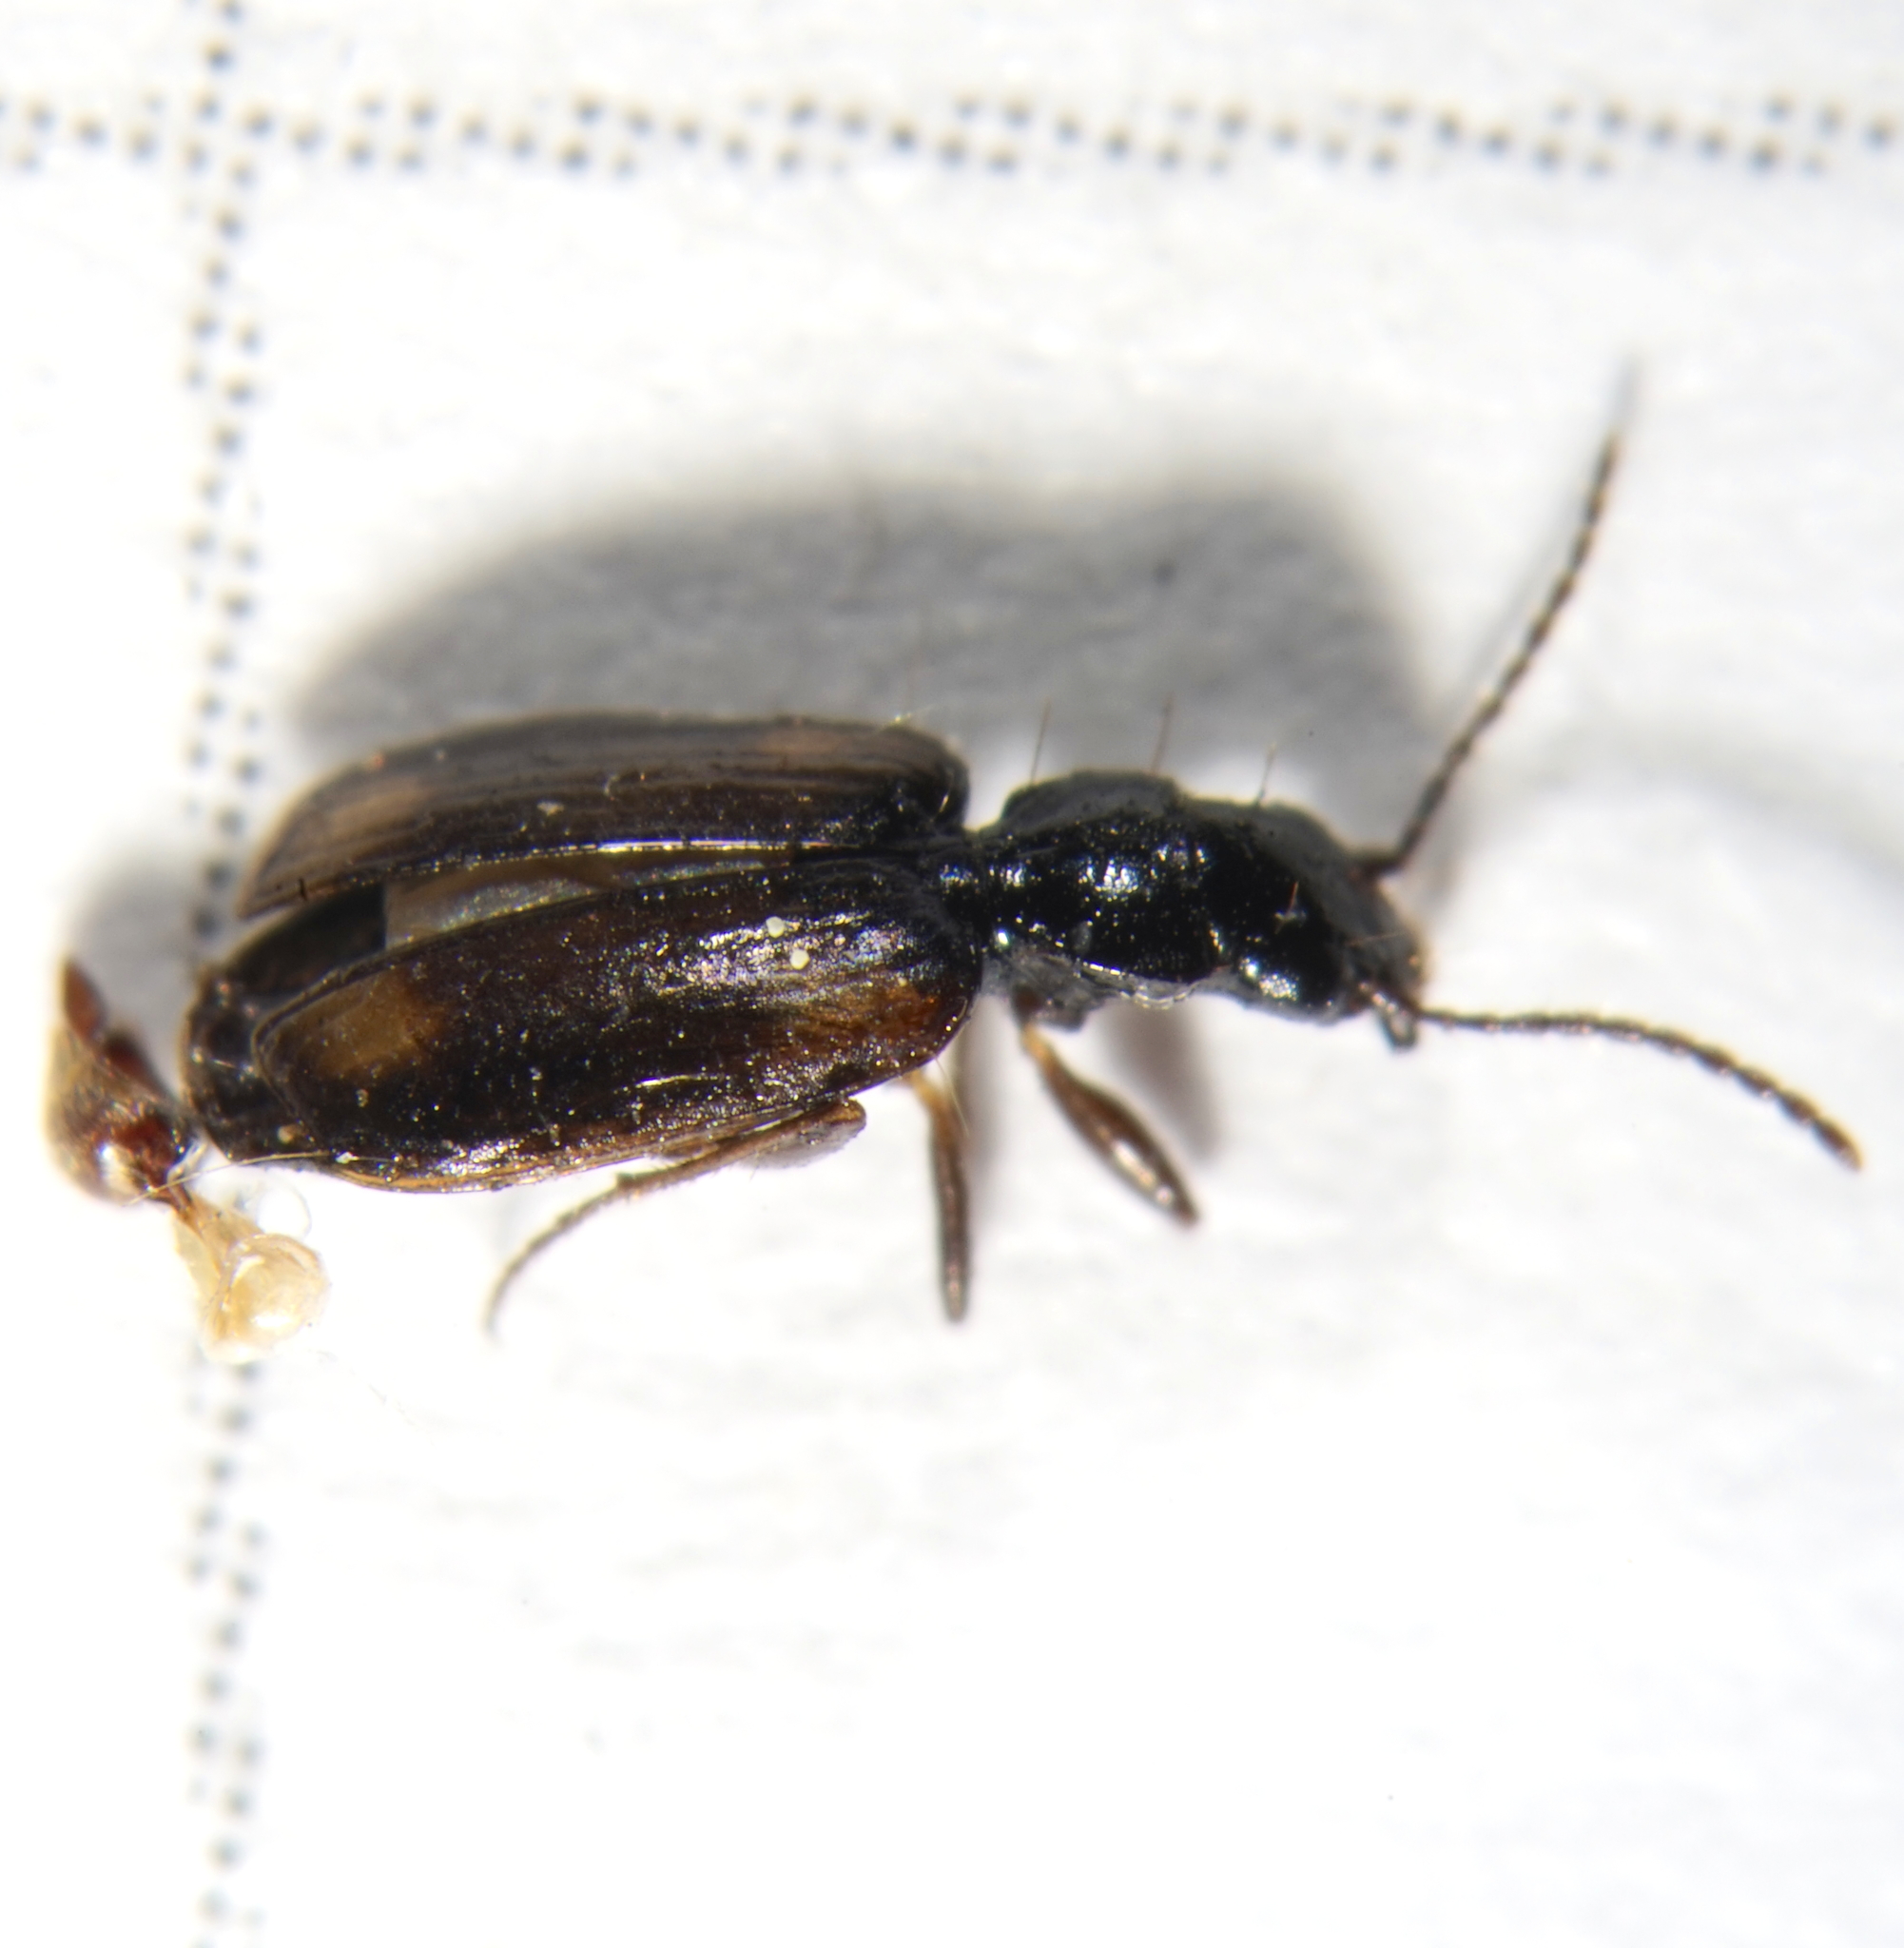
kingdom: Animalia
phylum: Arthropoda
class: Insecta
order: Coleoptera
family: Carabidae
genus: Syntomus
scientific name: Syntomus obscuroguttatus
